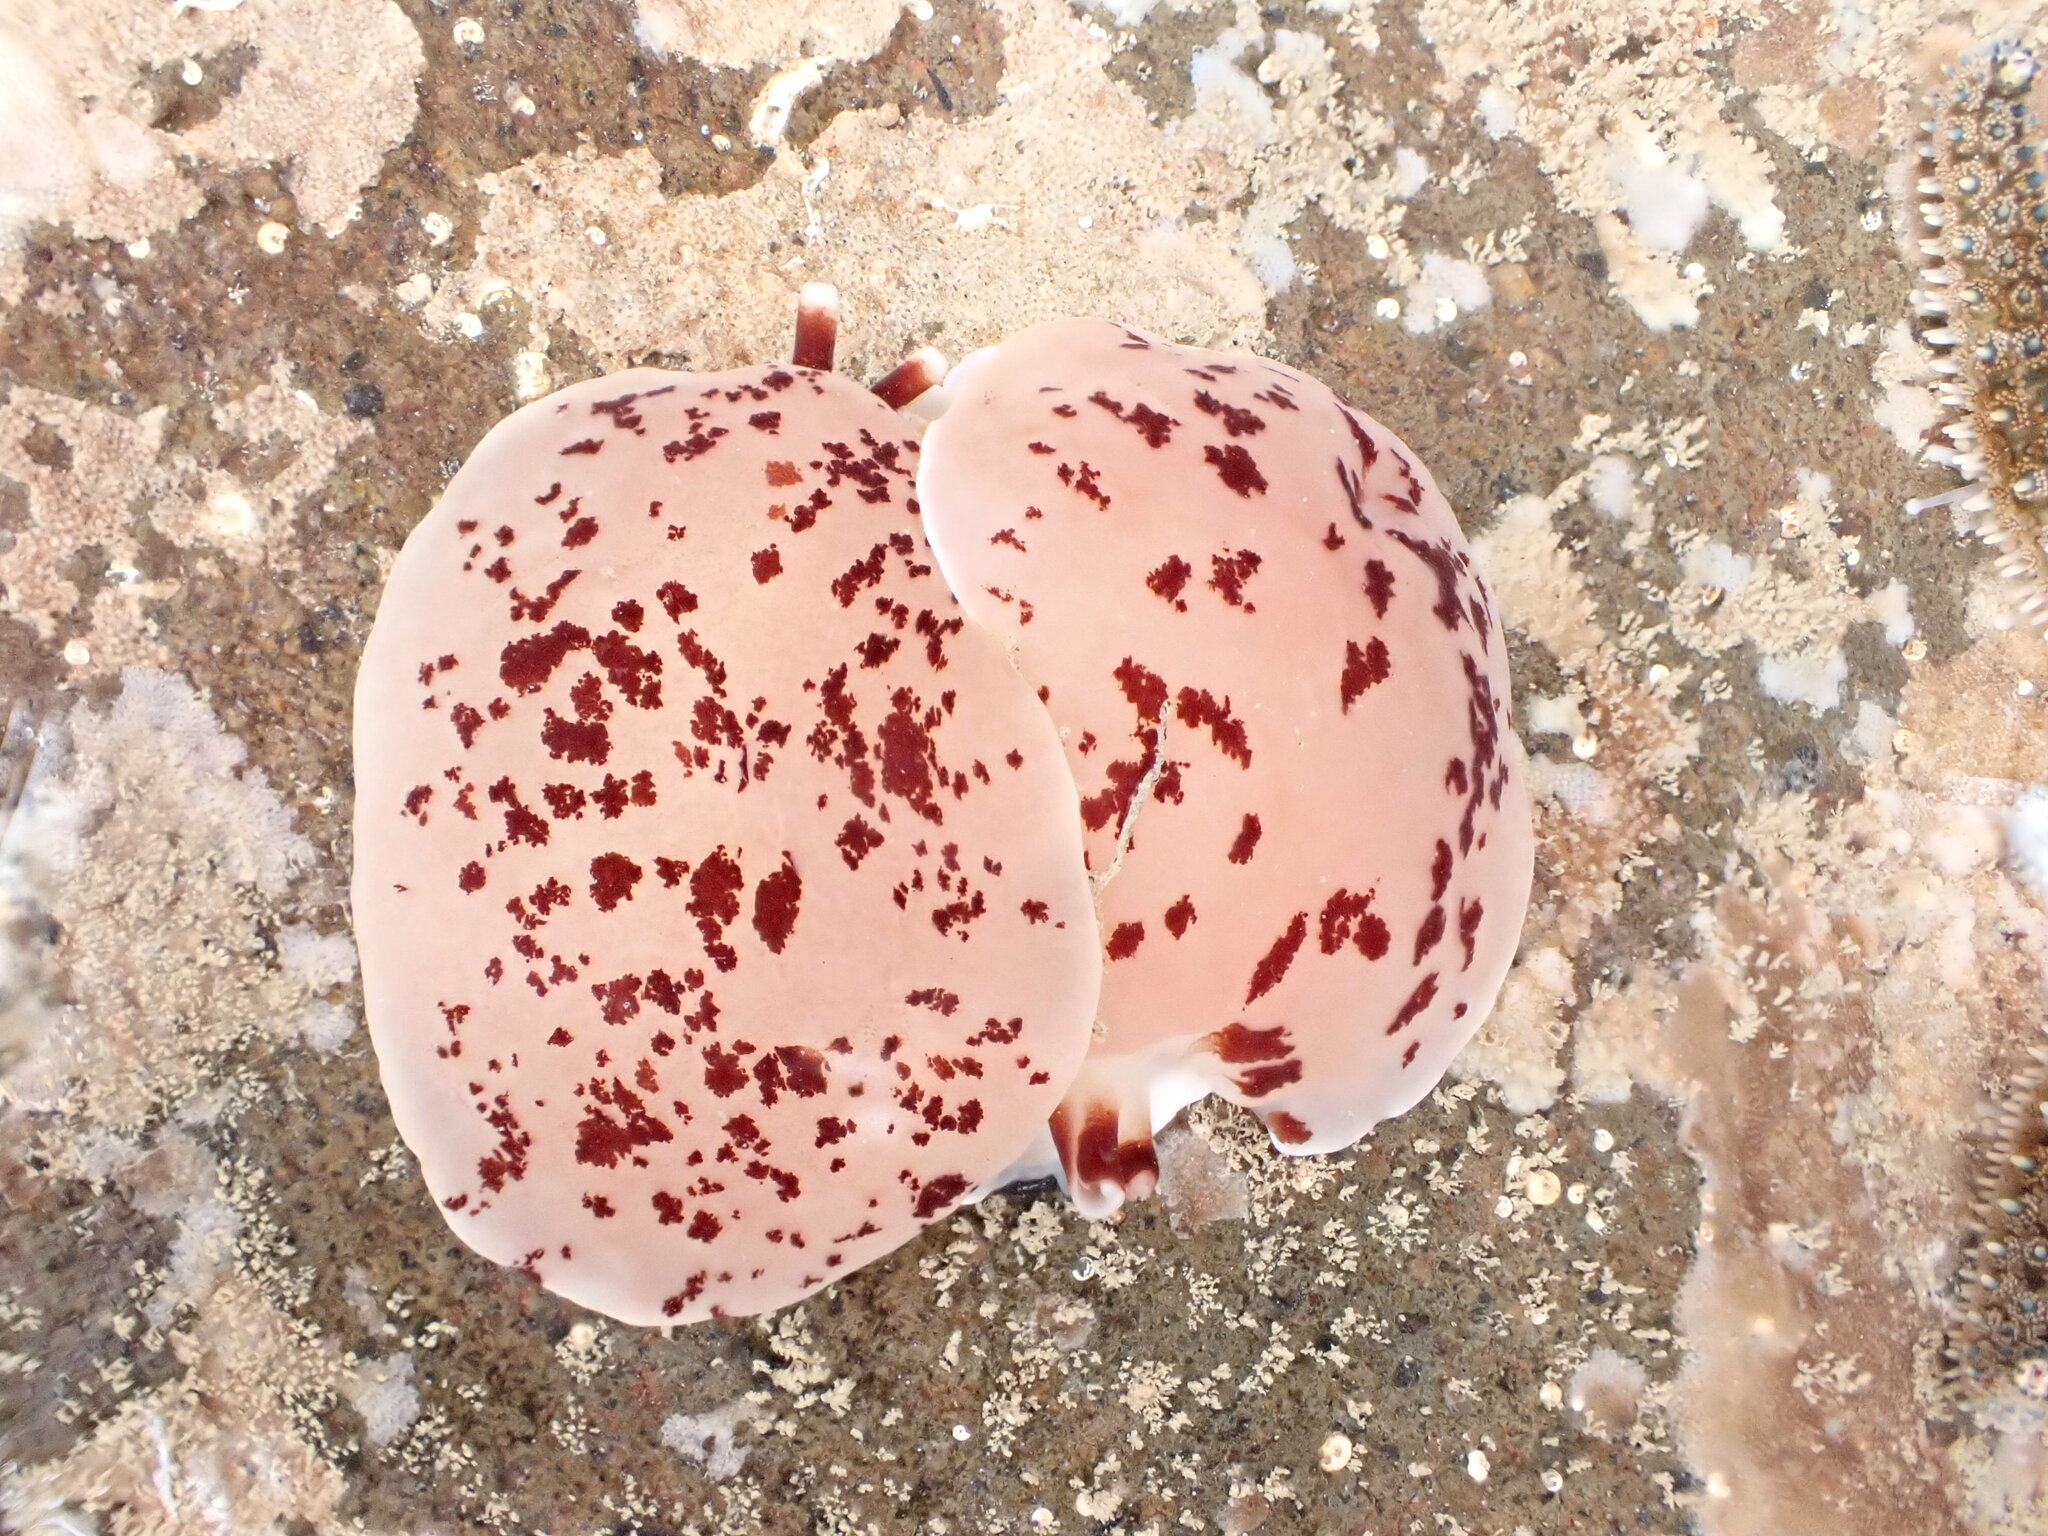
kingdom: Animalia
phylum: Mollusca
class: Gastropoda
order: Pleurobranchida
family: Pleurobranchidae
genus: Berthella
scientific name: Berthella ornata
